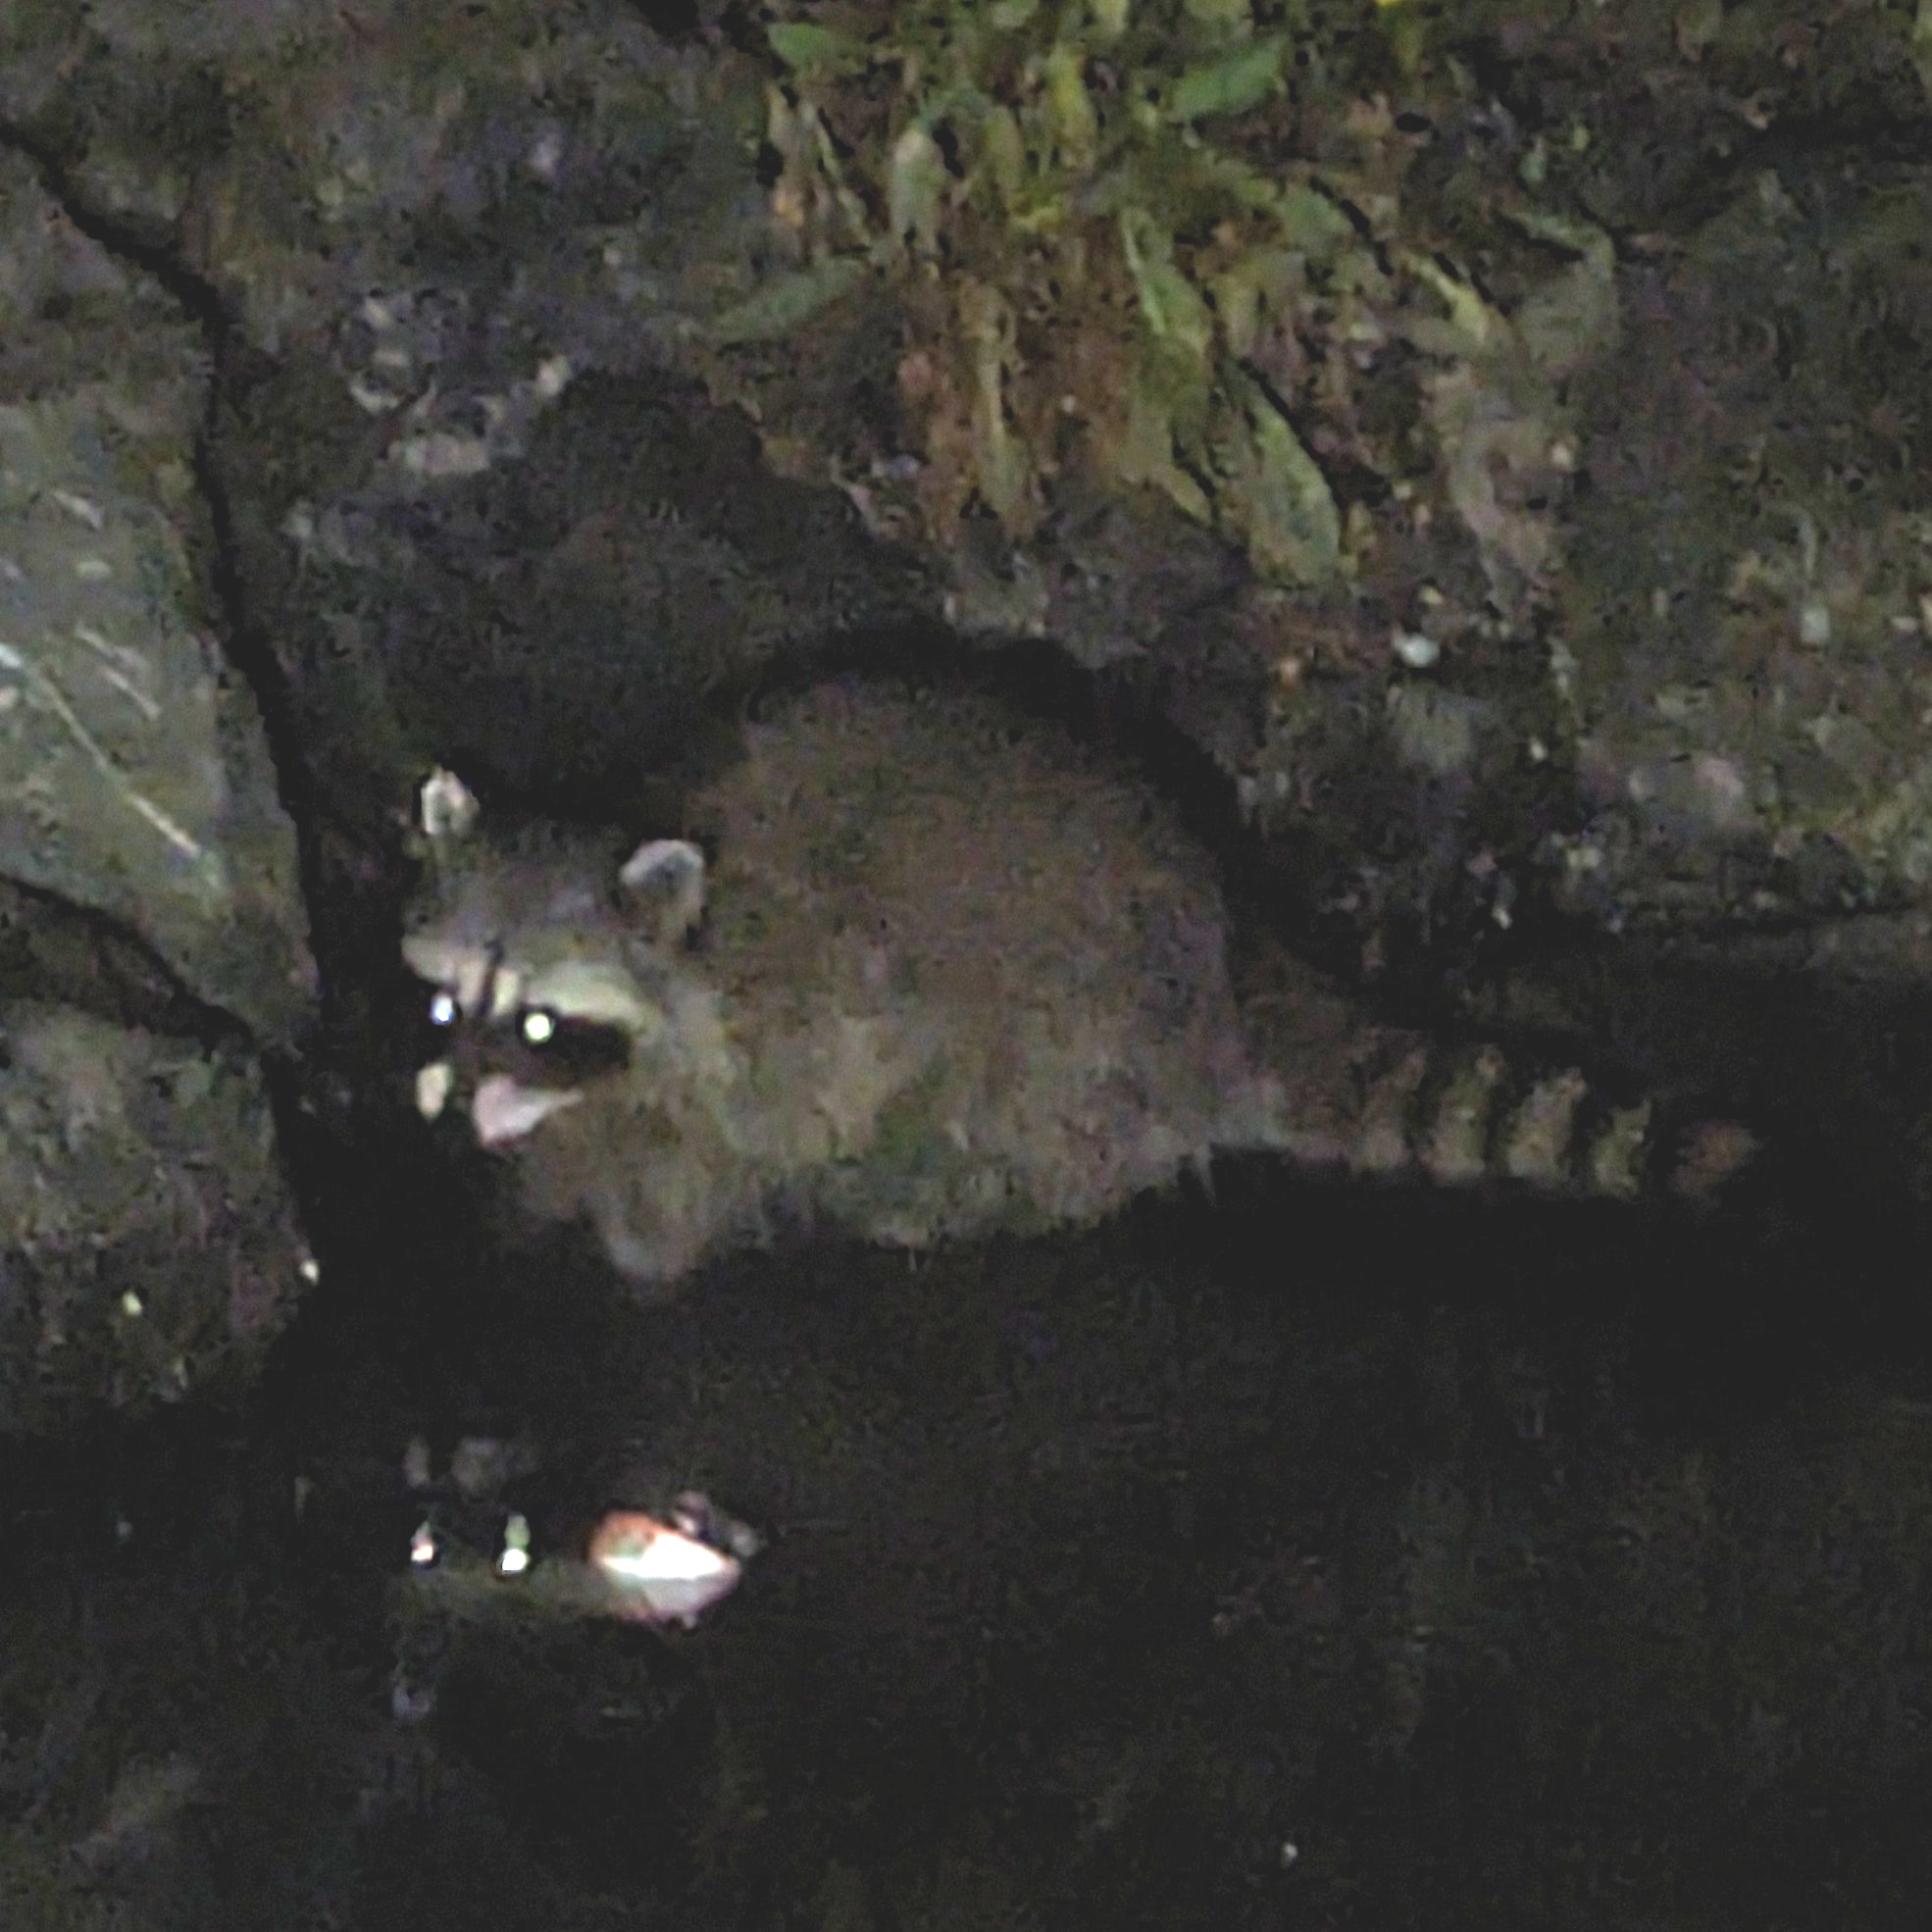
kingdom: Animalia
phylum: Chordata
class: Mammalia
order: Carnivora
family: Procyonidae
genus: Procyon
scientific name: Procyon lotor
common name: Raccoon
